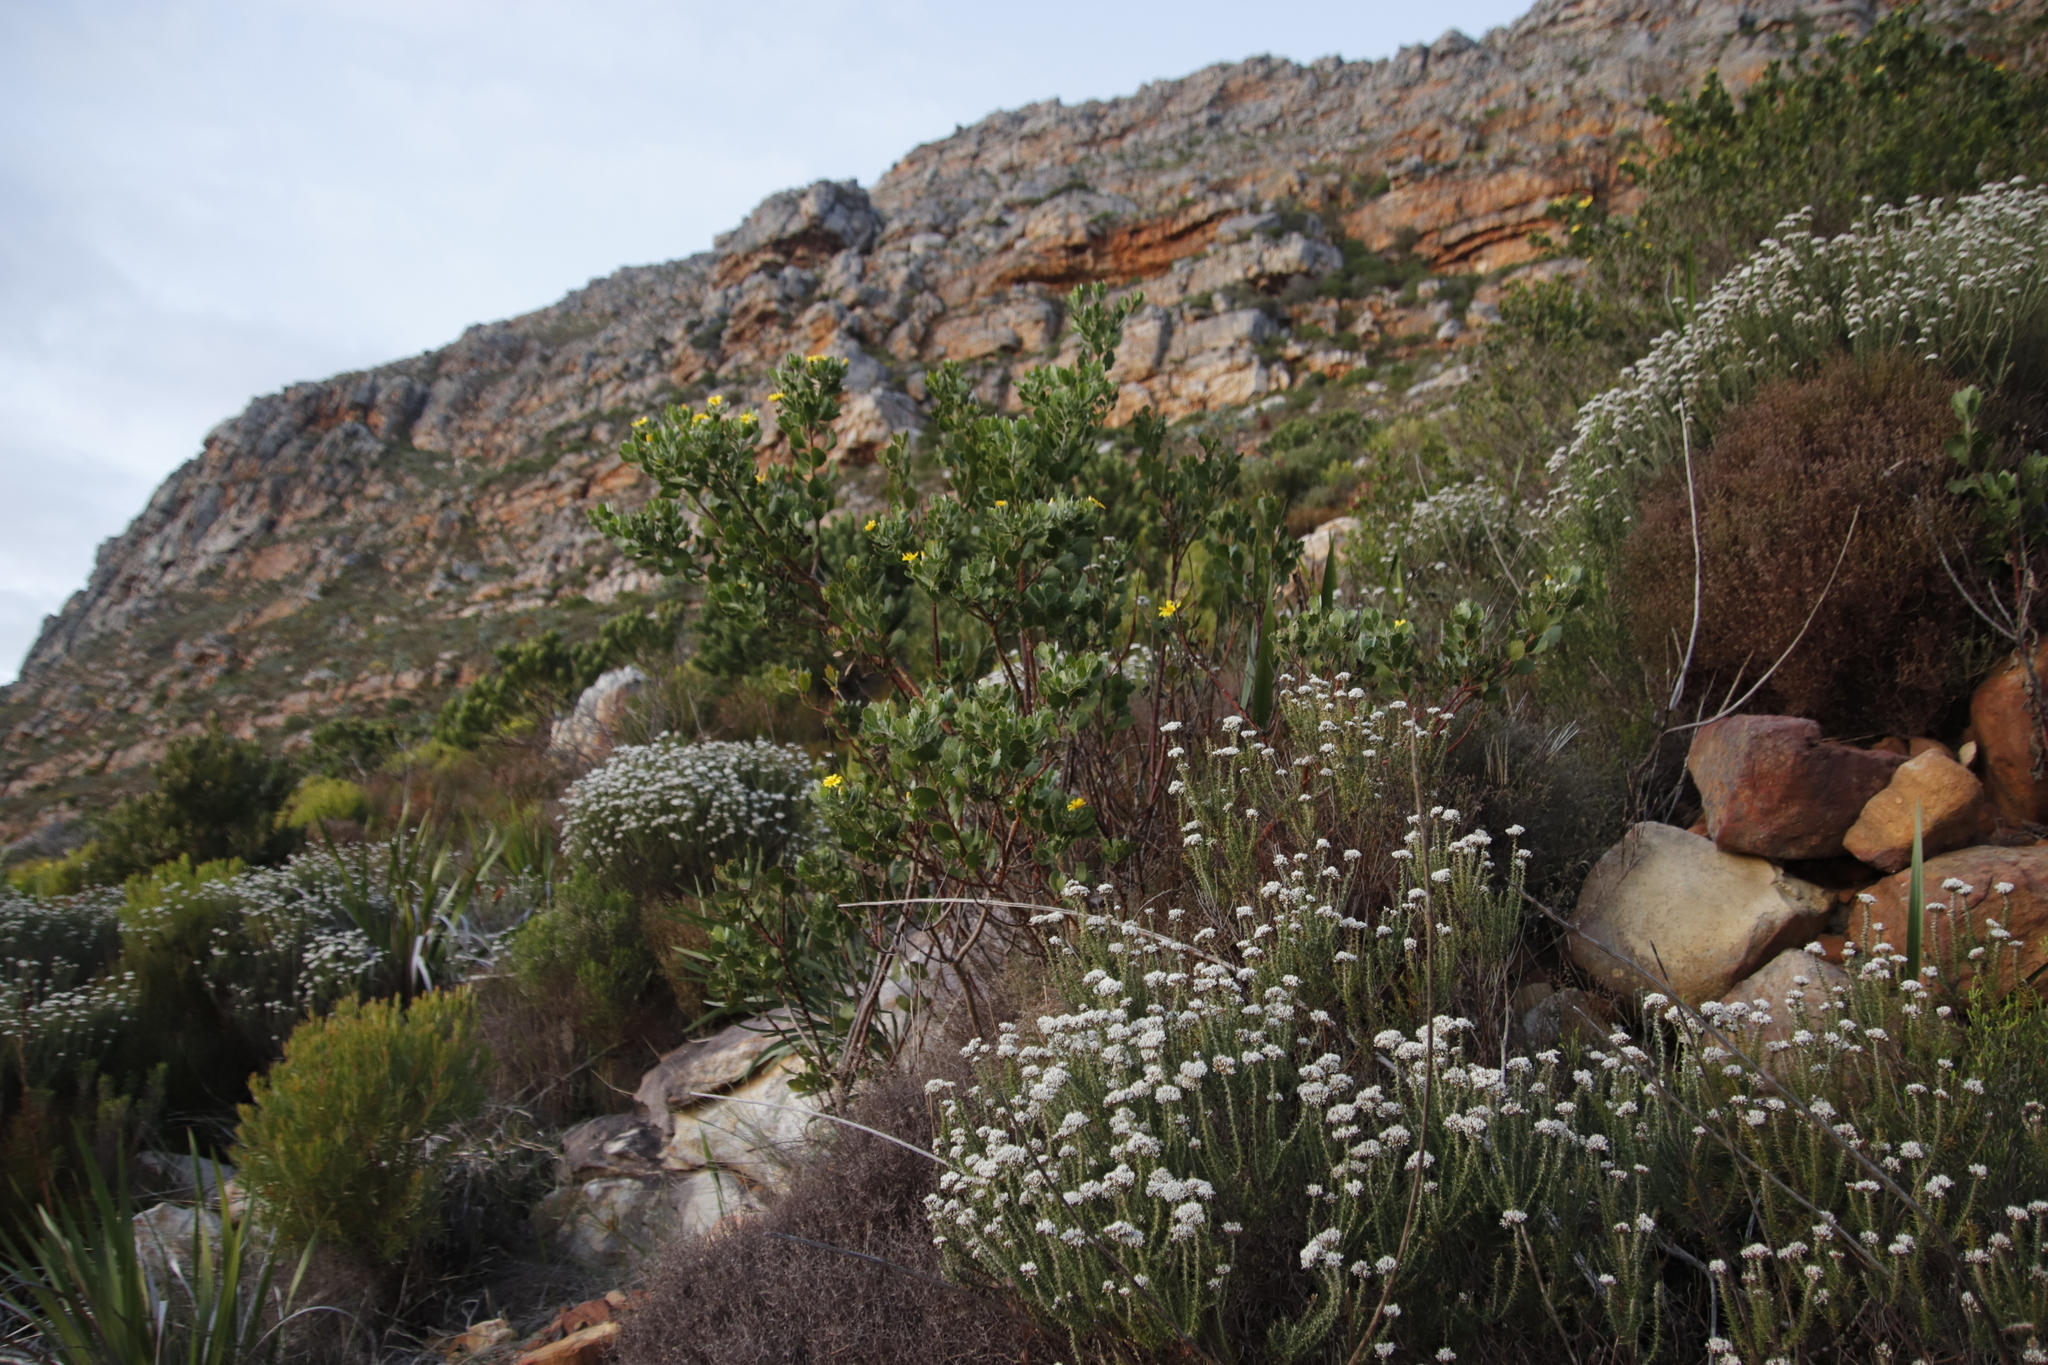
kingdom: Plantae
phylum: Tracheophyta
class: Magnoliopsida
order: Asterales
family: Asteraceae
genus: Osteospermum
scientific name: Osteospermum moniliferum
